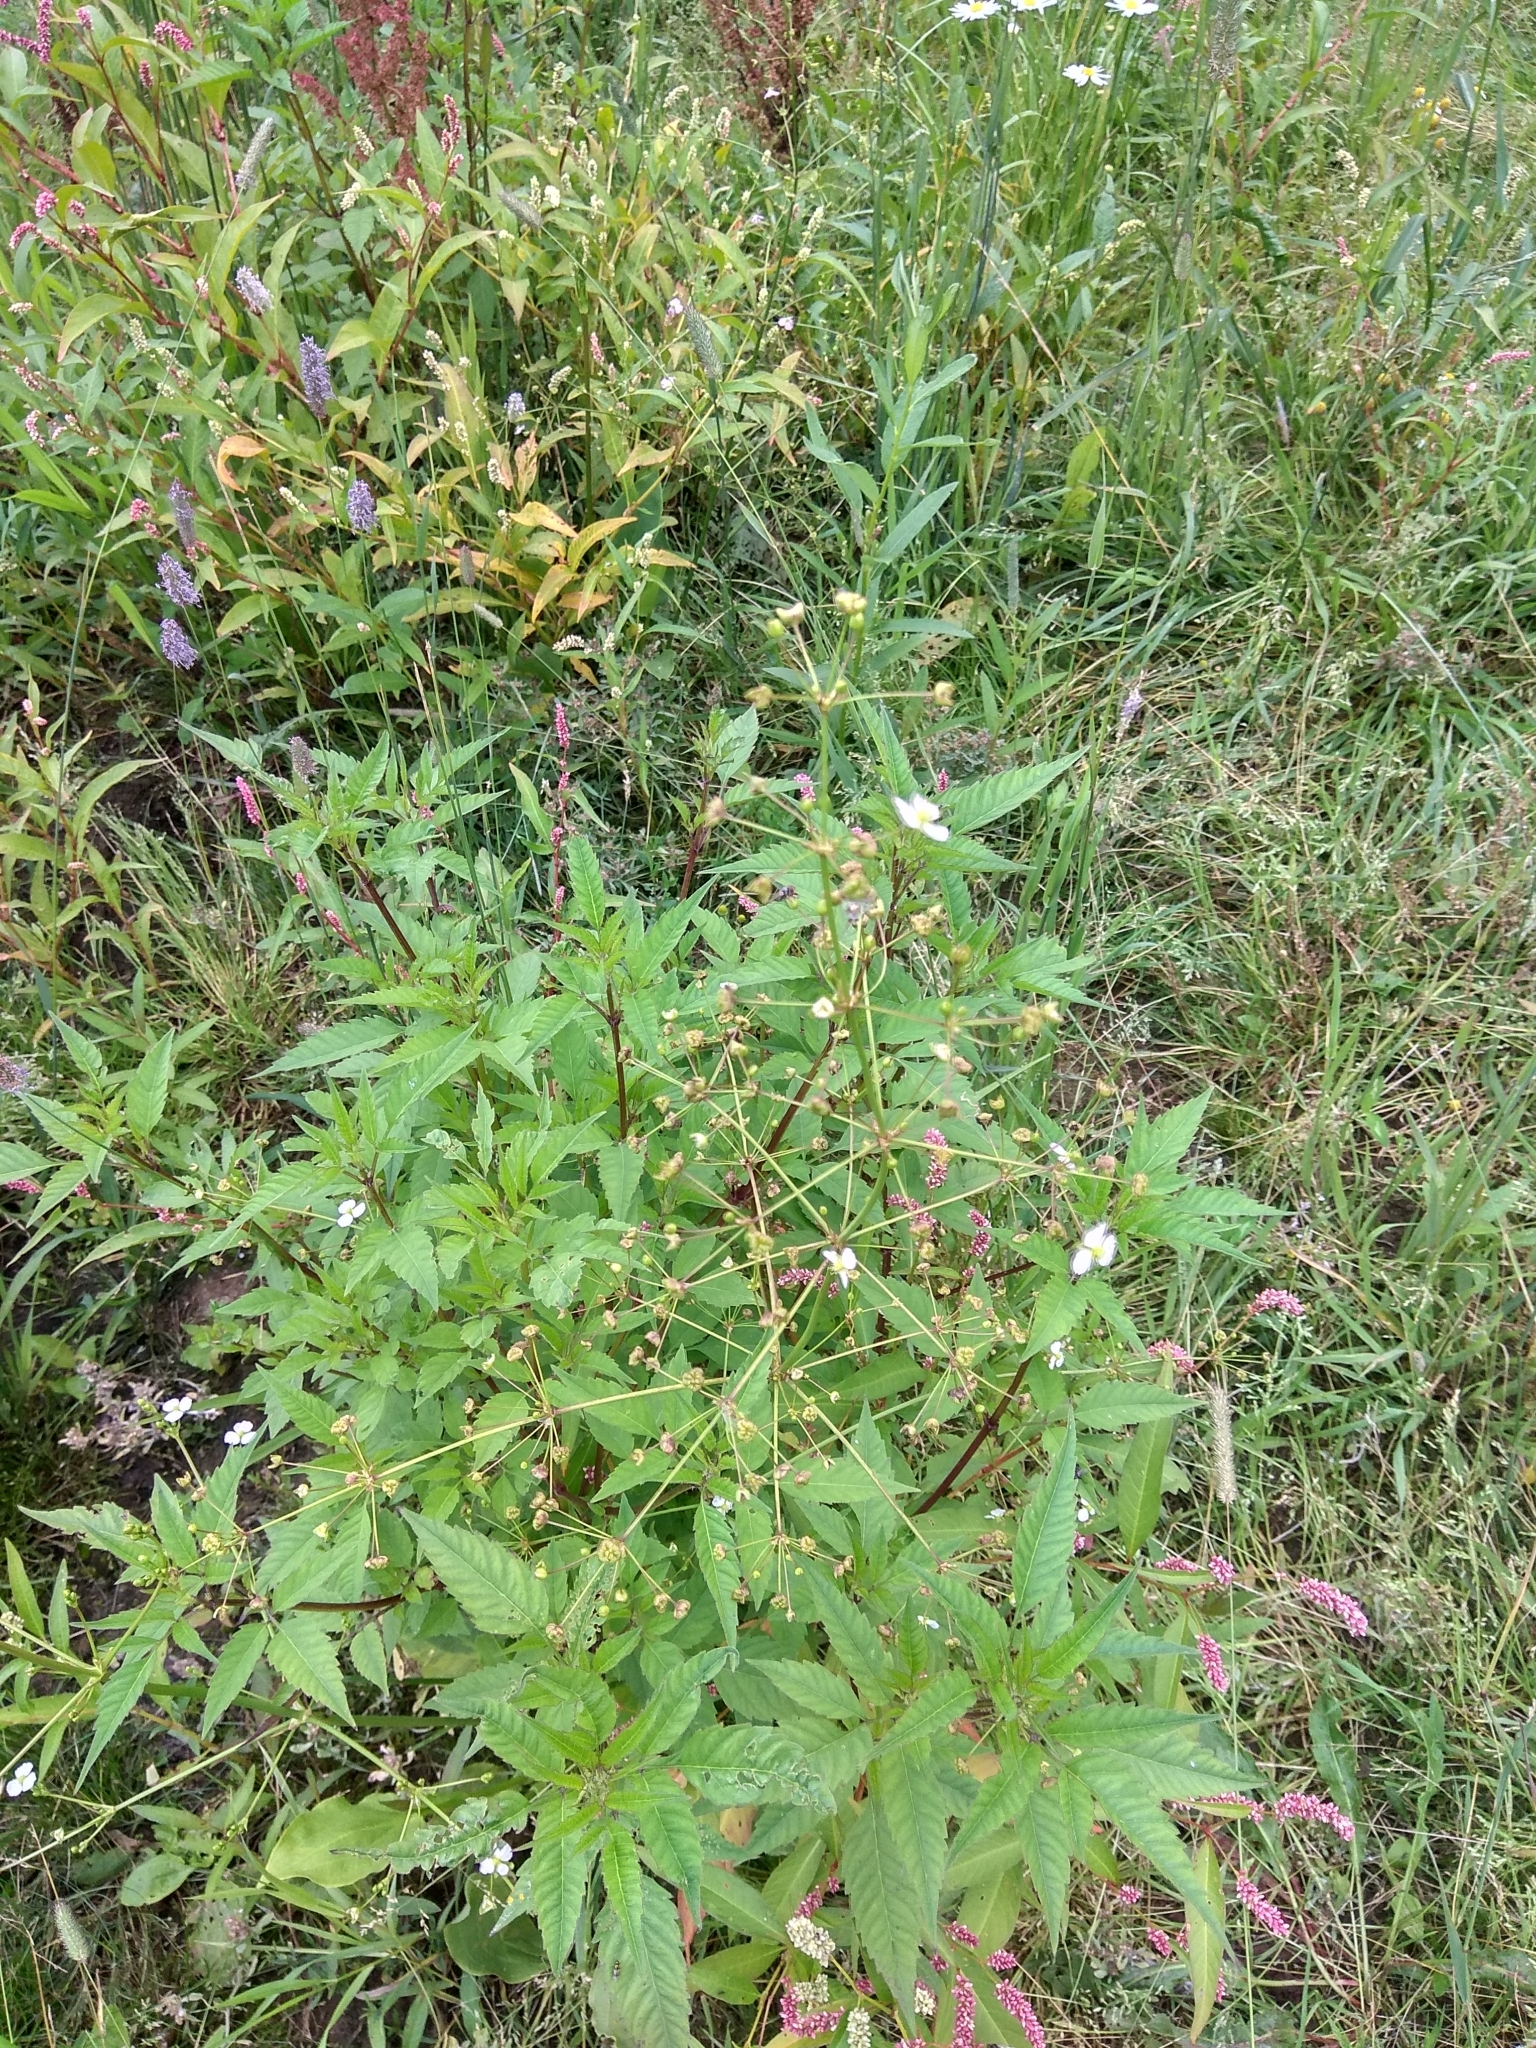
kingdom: Plantae
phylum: Tracheophyta
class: Liliopsida
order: Alismatales
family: Alismataceae
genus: Alisma
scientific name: Alisma plantago-aquatica
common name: Water-plantain
